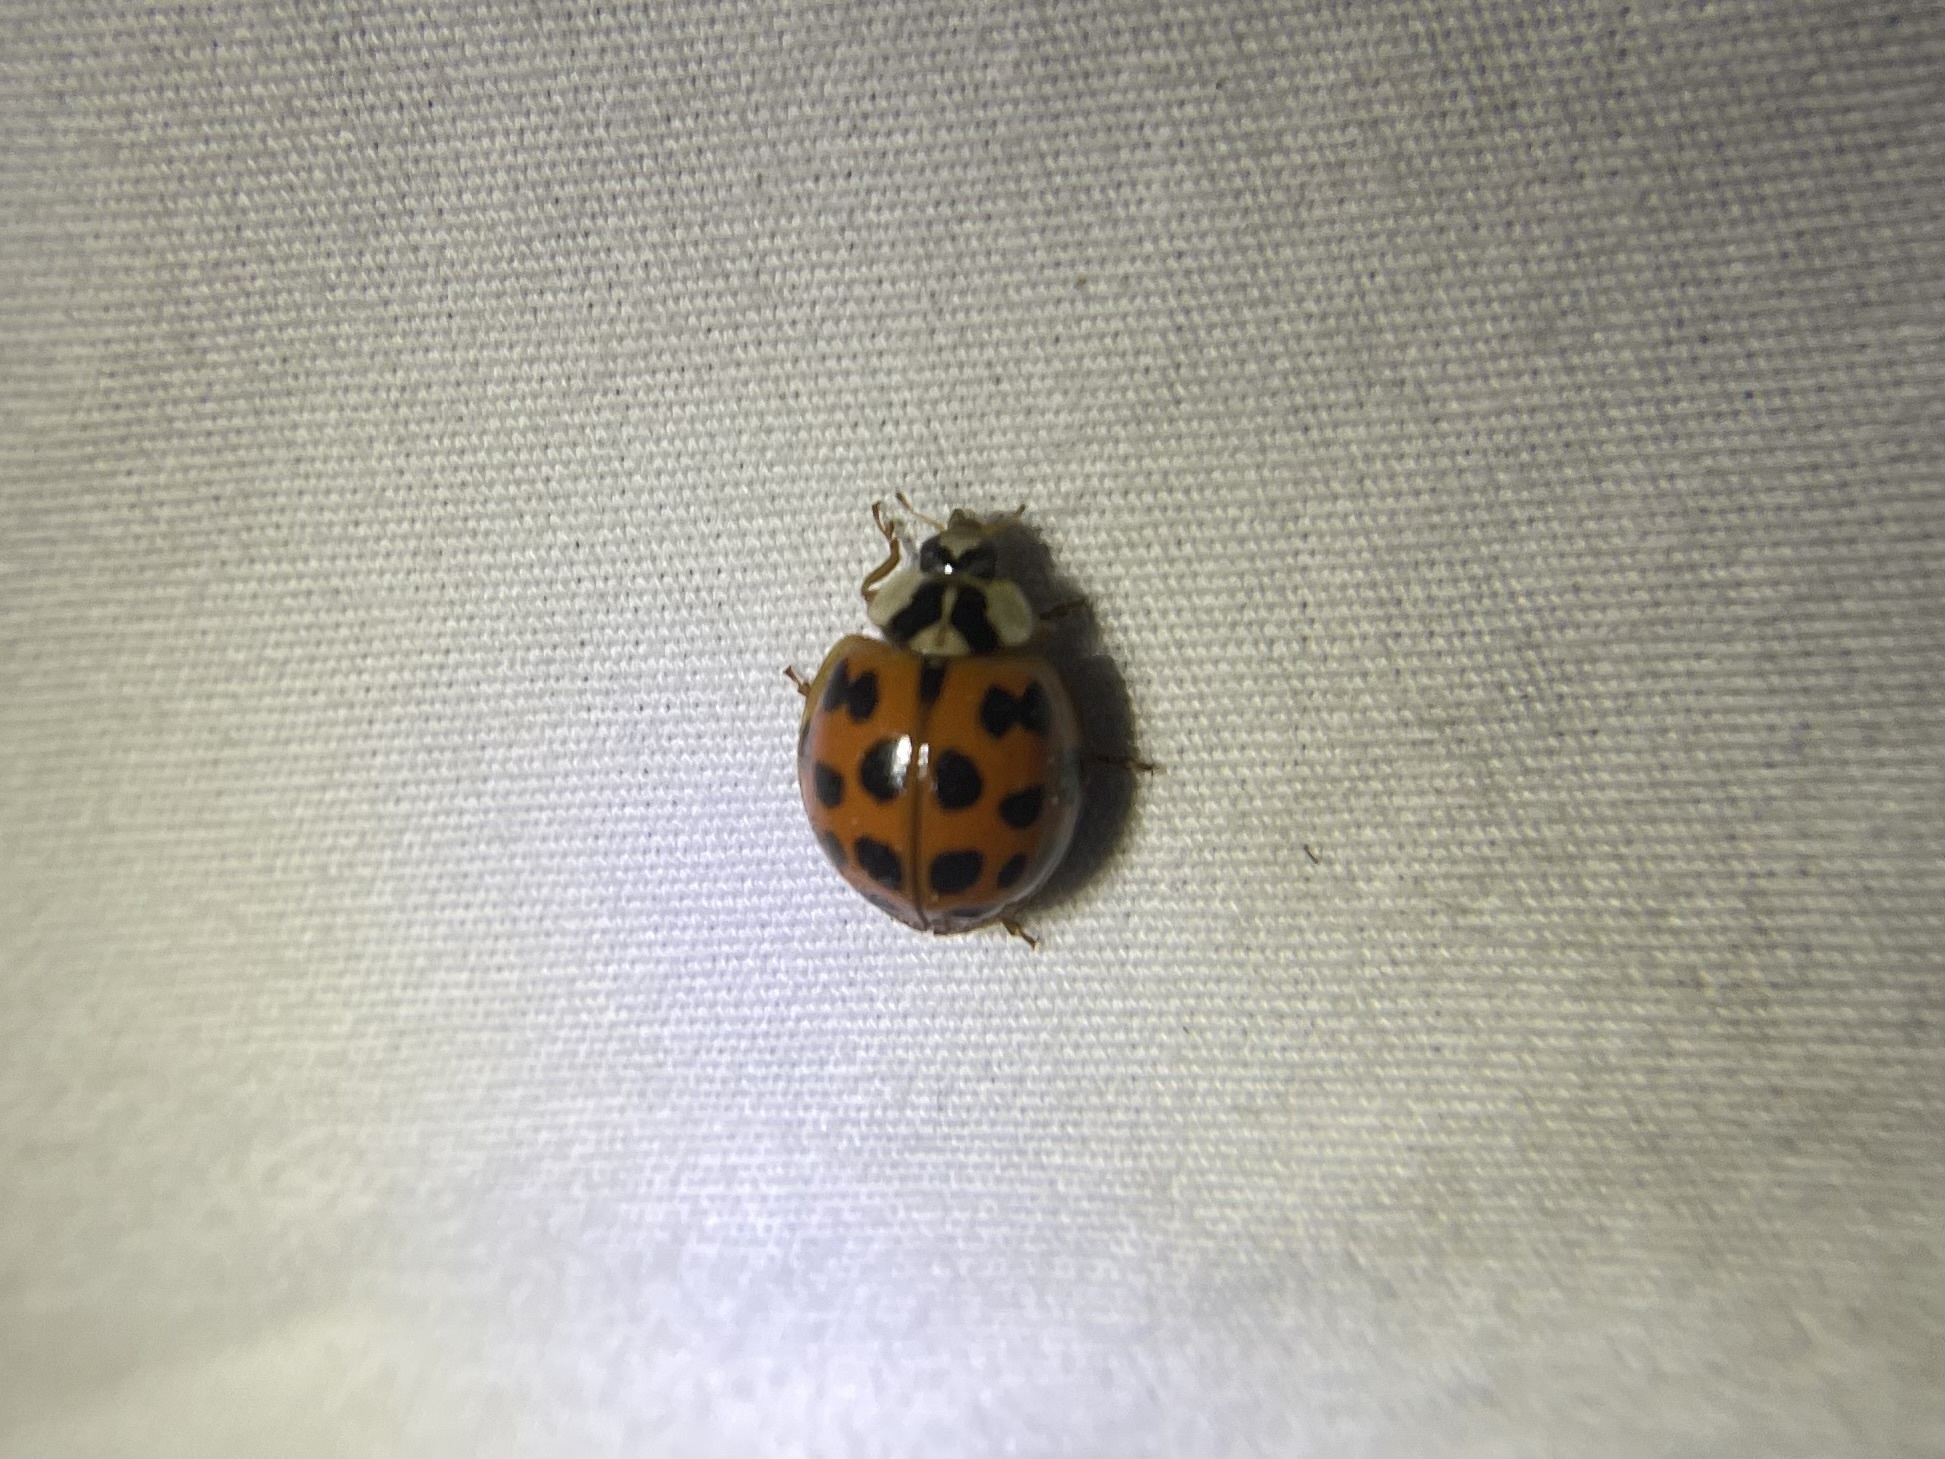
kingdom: Animalia
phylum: Arthropoda
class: Insecta
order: Coleoptera
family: Coccinellidae
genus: Harmonia
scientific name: Harmonia axyridis
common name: Harlequin ladybird
